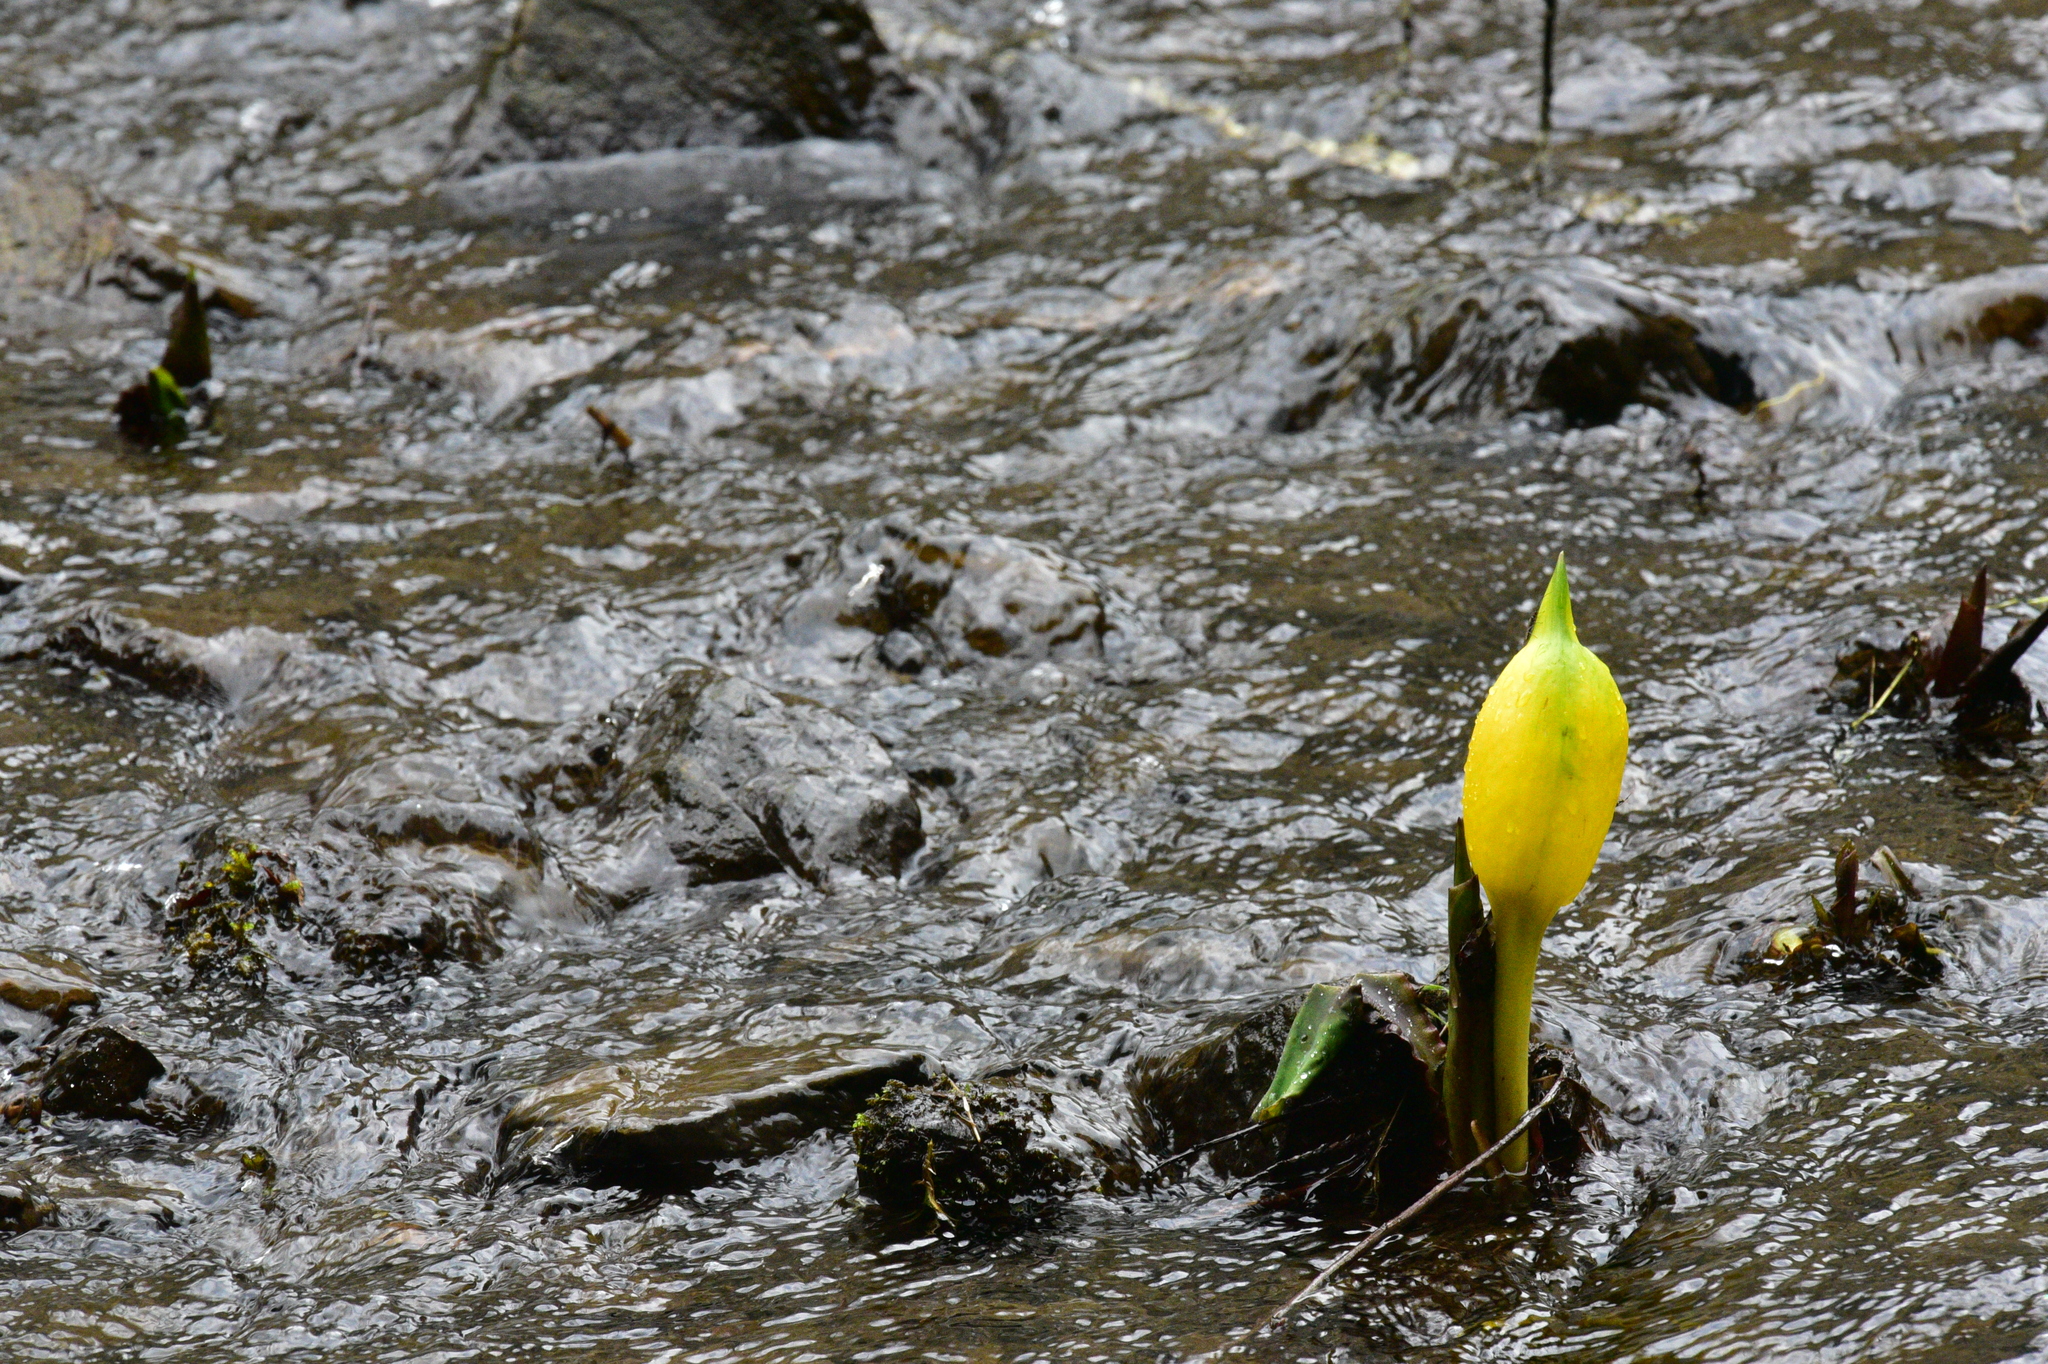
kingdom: Plantae
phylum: Tracheophyta
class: Liliopsida
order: Alismatales
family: Araceae
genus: Lysichiton
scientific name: Lysichiton americanus
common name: American skunk cabbage
